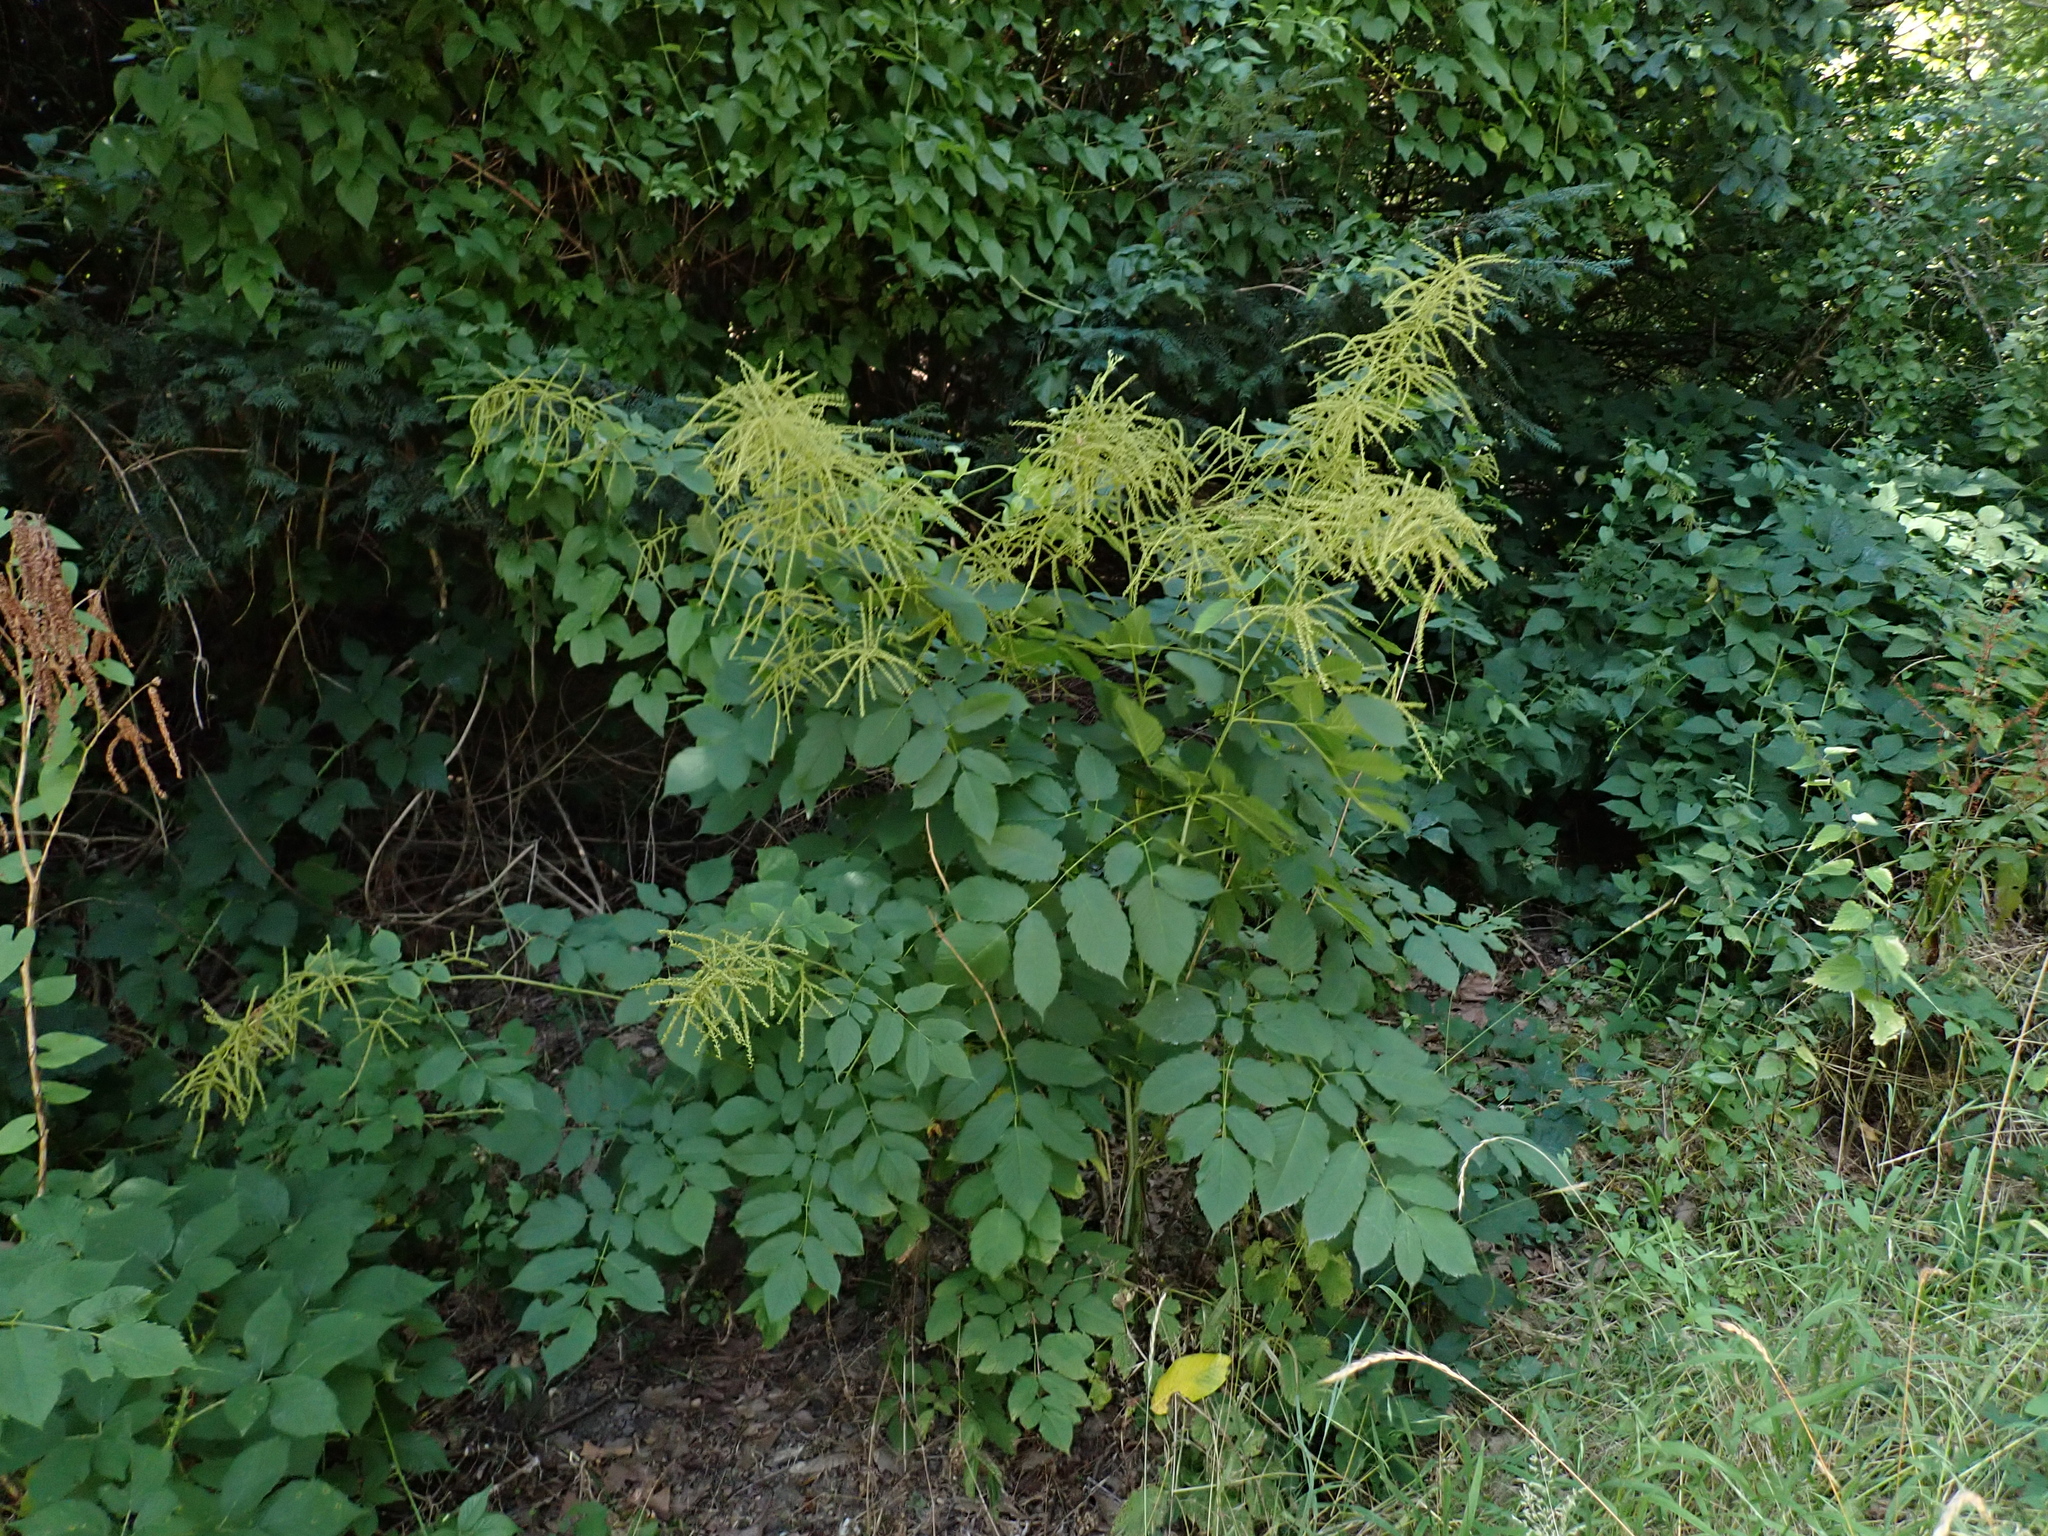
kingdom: Plantae
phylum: Tracheophyta
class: Magnoliopsida
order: Rosales
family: Rosaceae
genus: Aruncus
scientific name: Aruncus dioicus
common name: Buck's-beard
